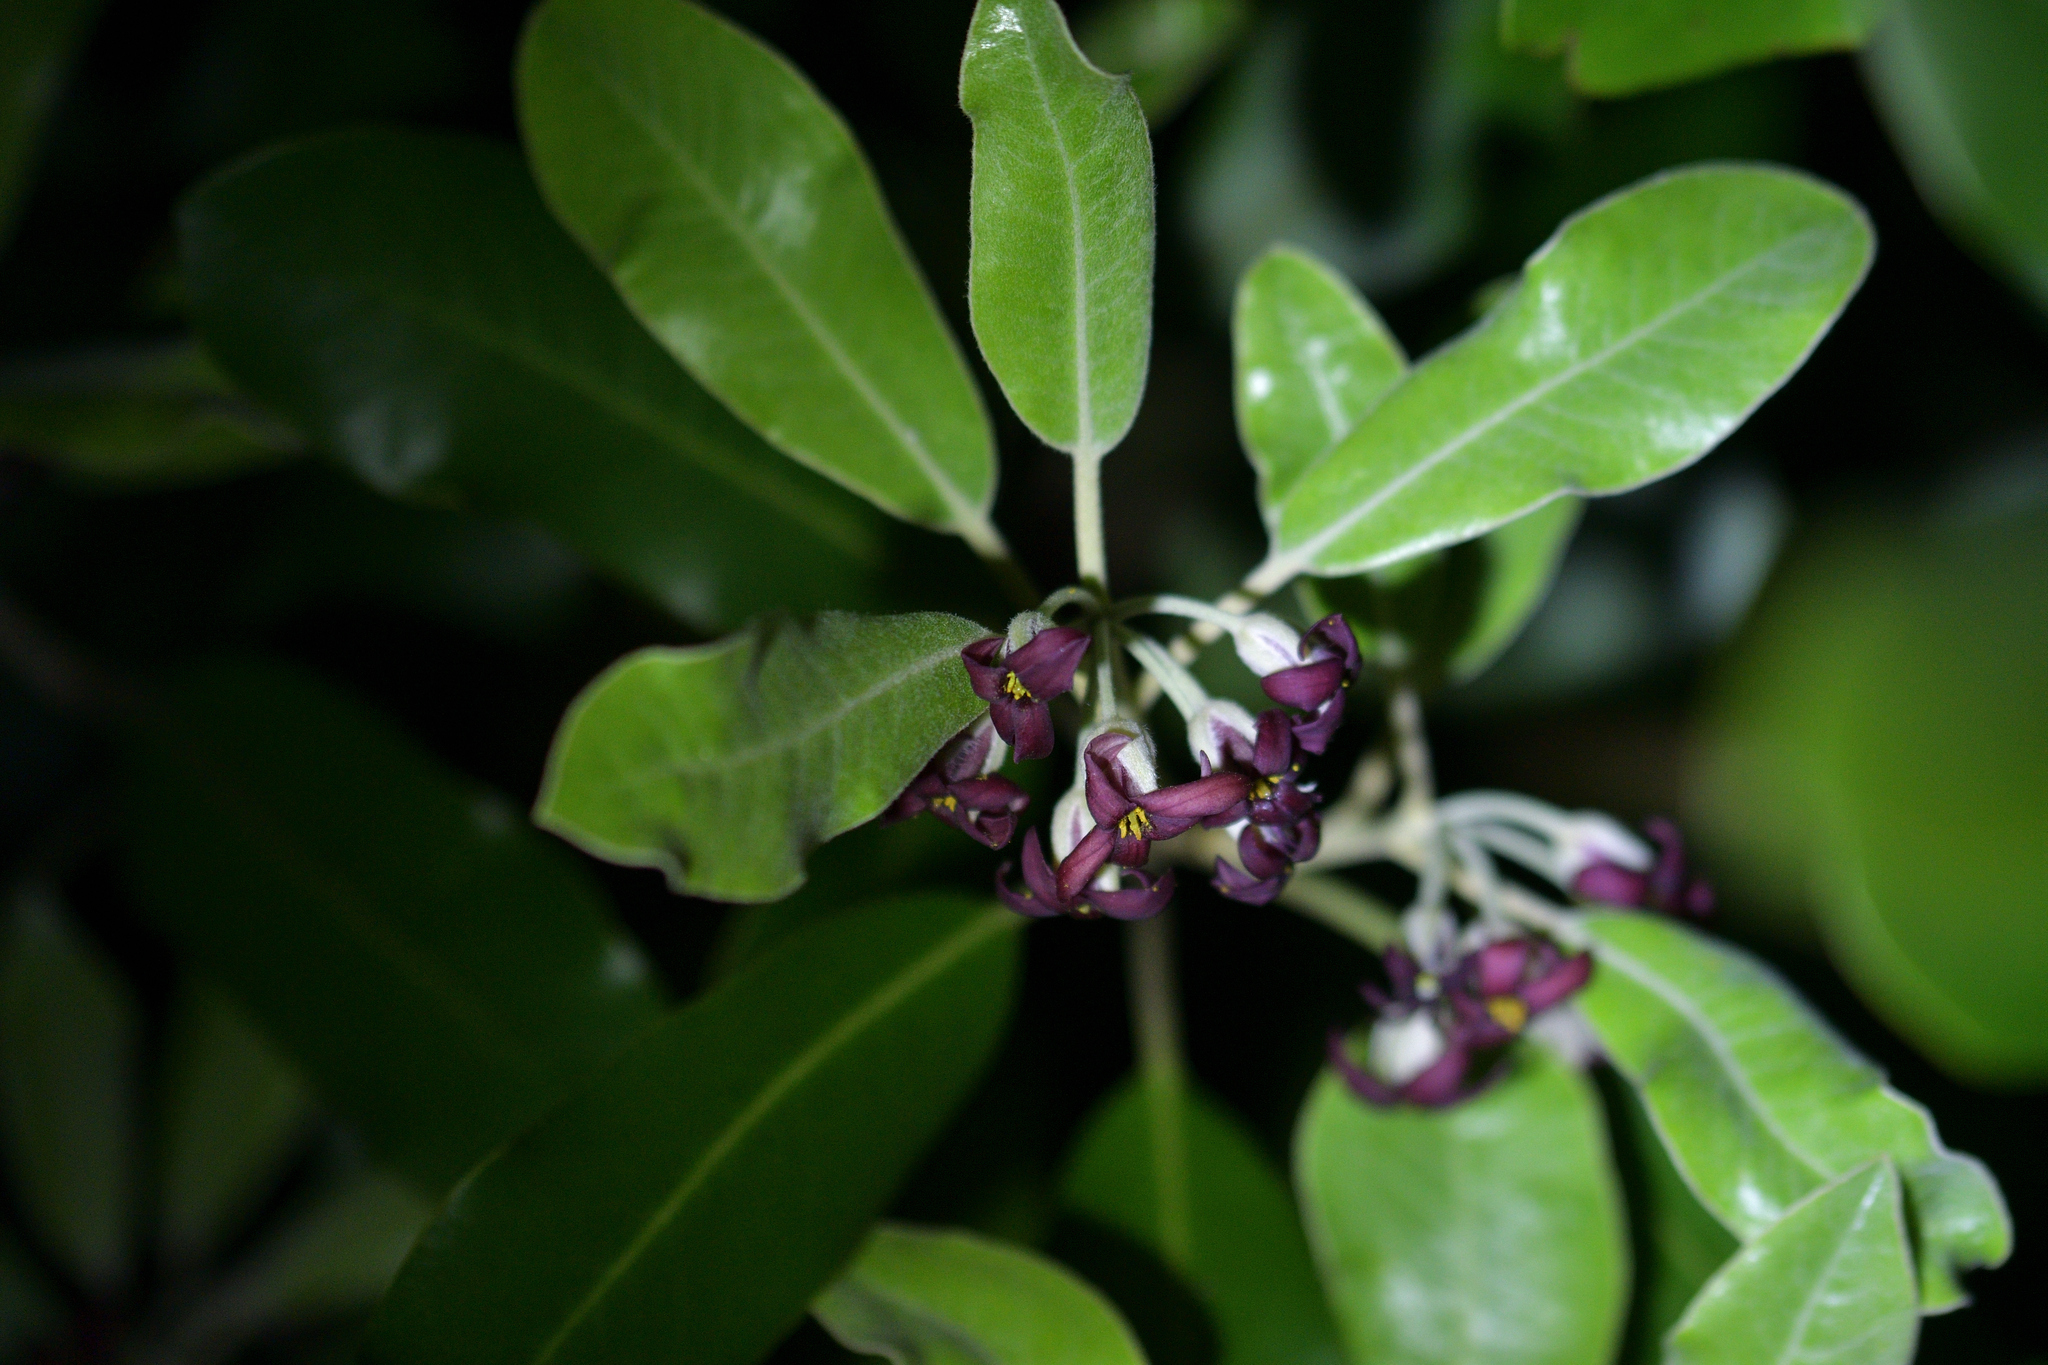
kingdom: Plantae
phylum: Tracheophyta
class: Magnoliopsida
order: Apiales
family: Pittosporaceae
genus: Pittosporum
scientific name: Pittosporum ralphii
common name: Ralph's desertwillow
